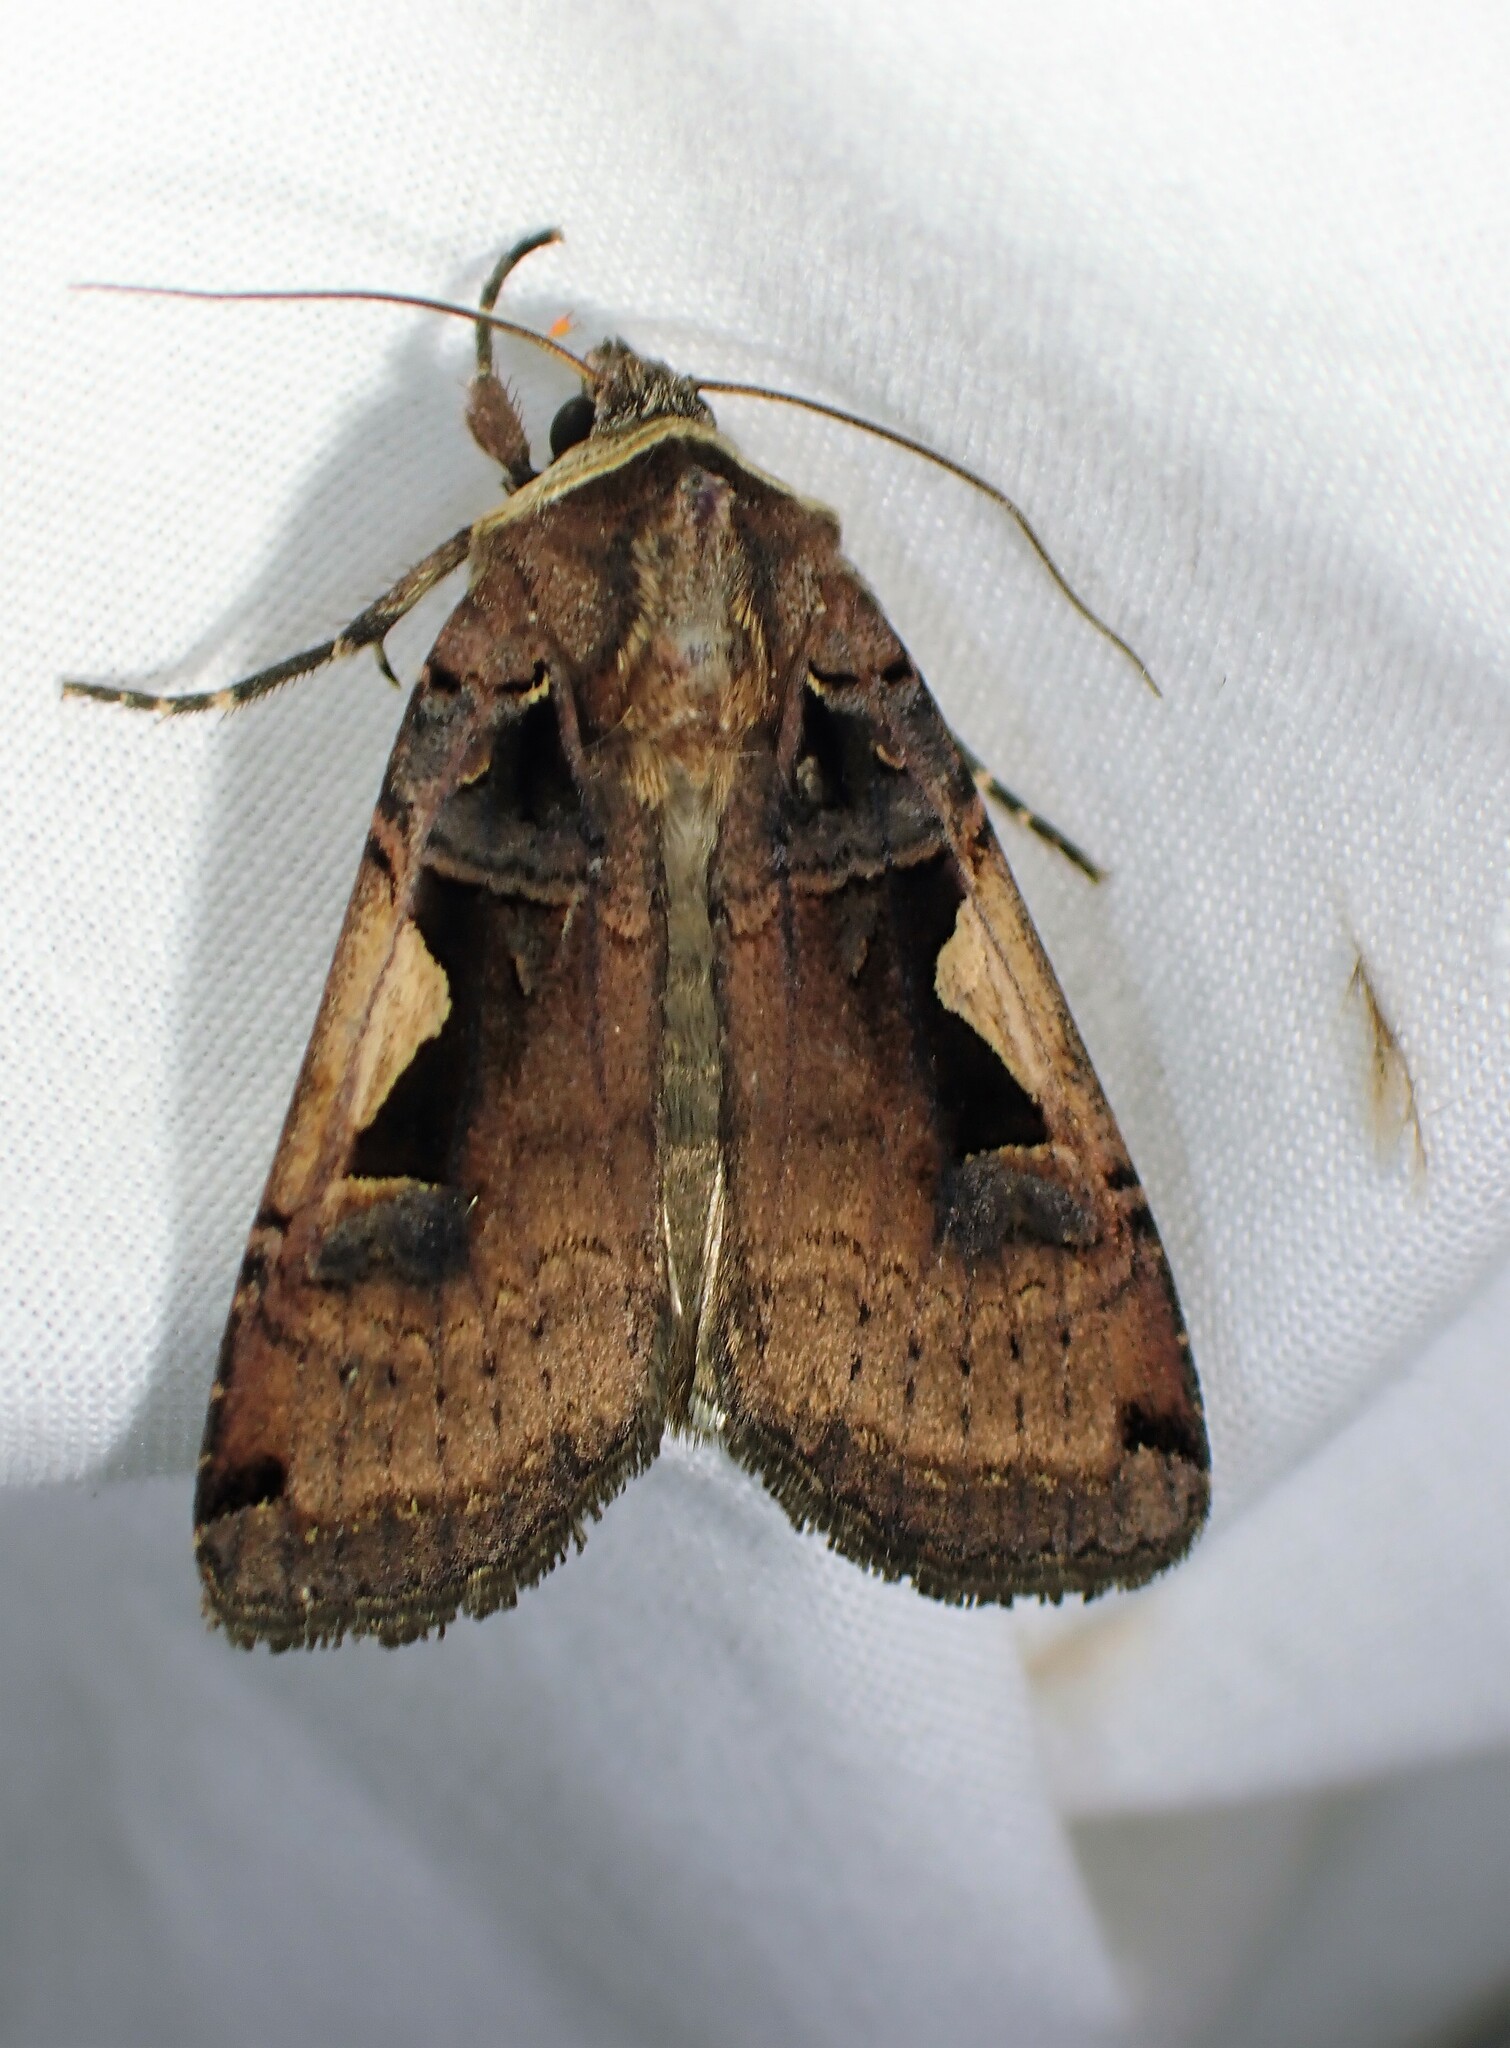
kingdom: Animalia
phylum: Arthropoda
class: Insecta
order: Lepidoptera
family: Noctuidae
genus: Xestia
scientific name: Xestia
